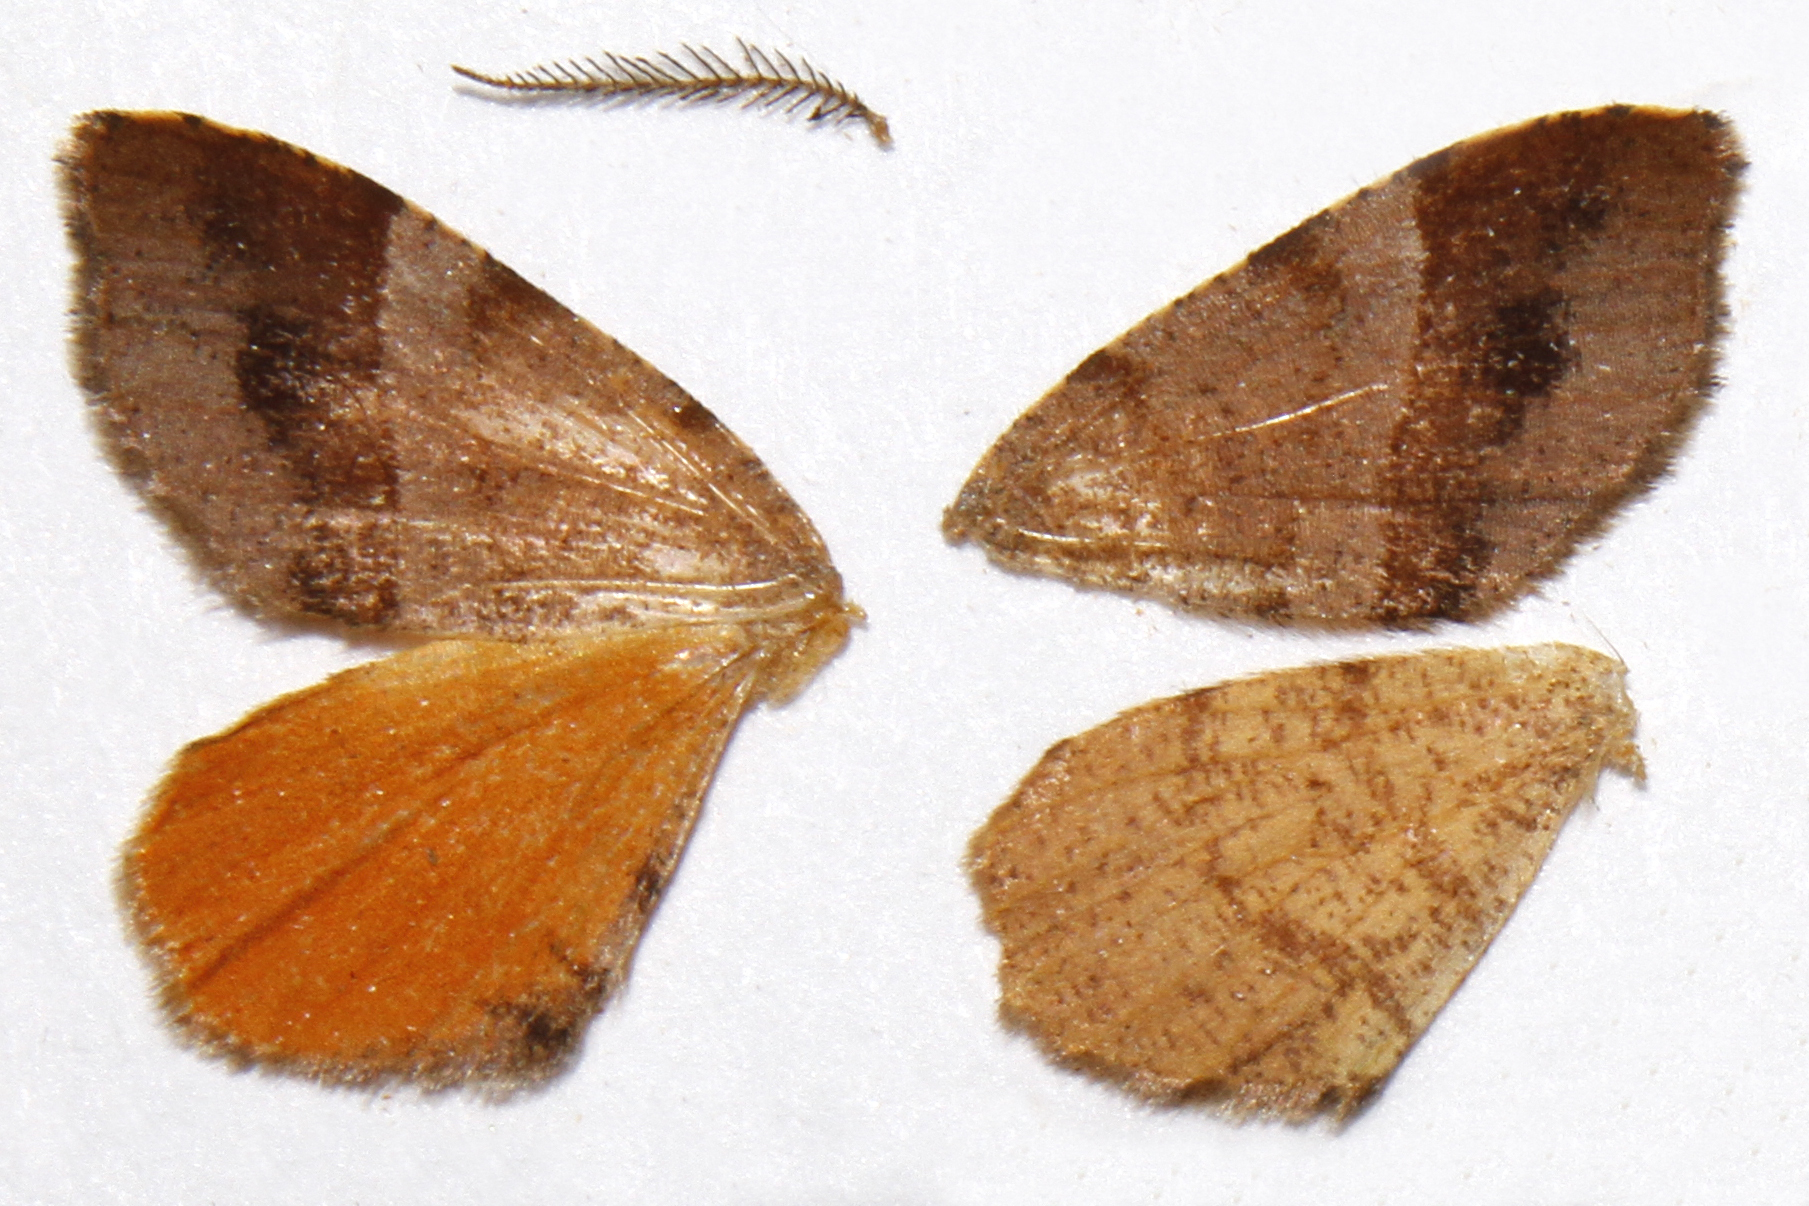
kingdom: Animalia
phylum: Arthropoda
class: Insecta
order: Lepidoptera
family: Geometridae
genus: Mellilla
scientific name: Mellilla xanthometata
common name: Orange wing moth
